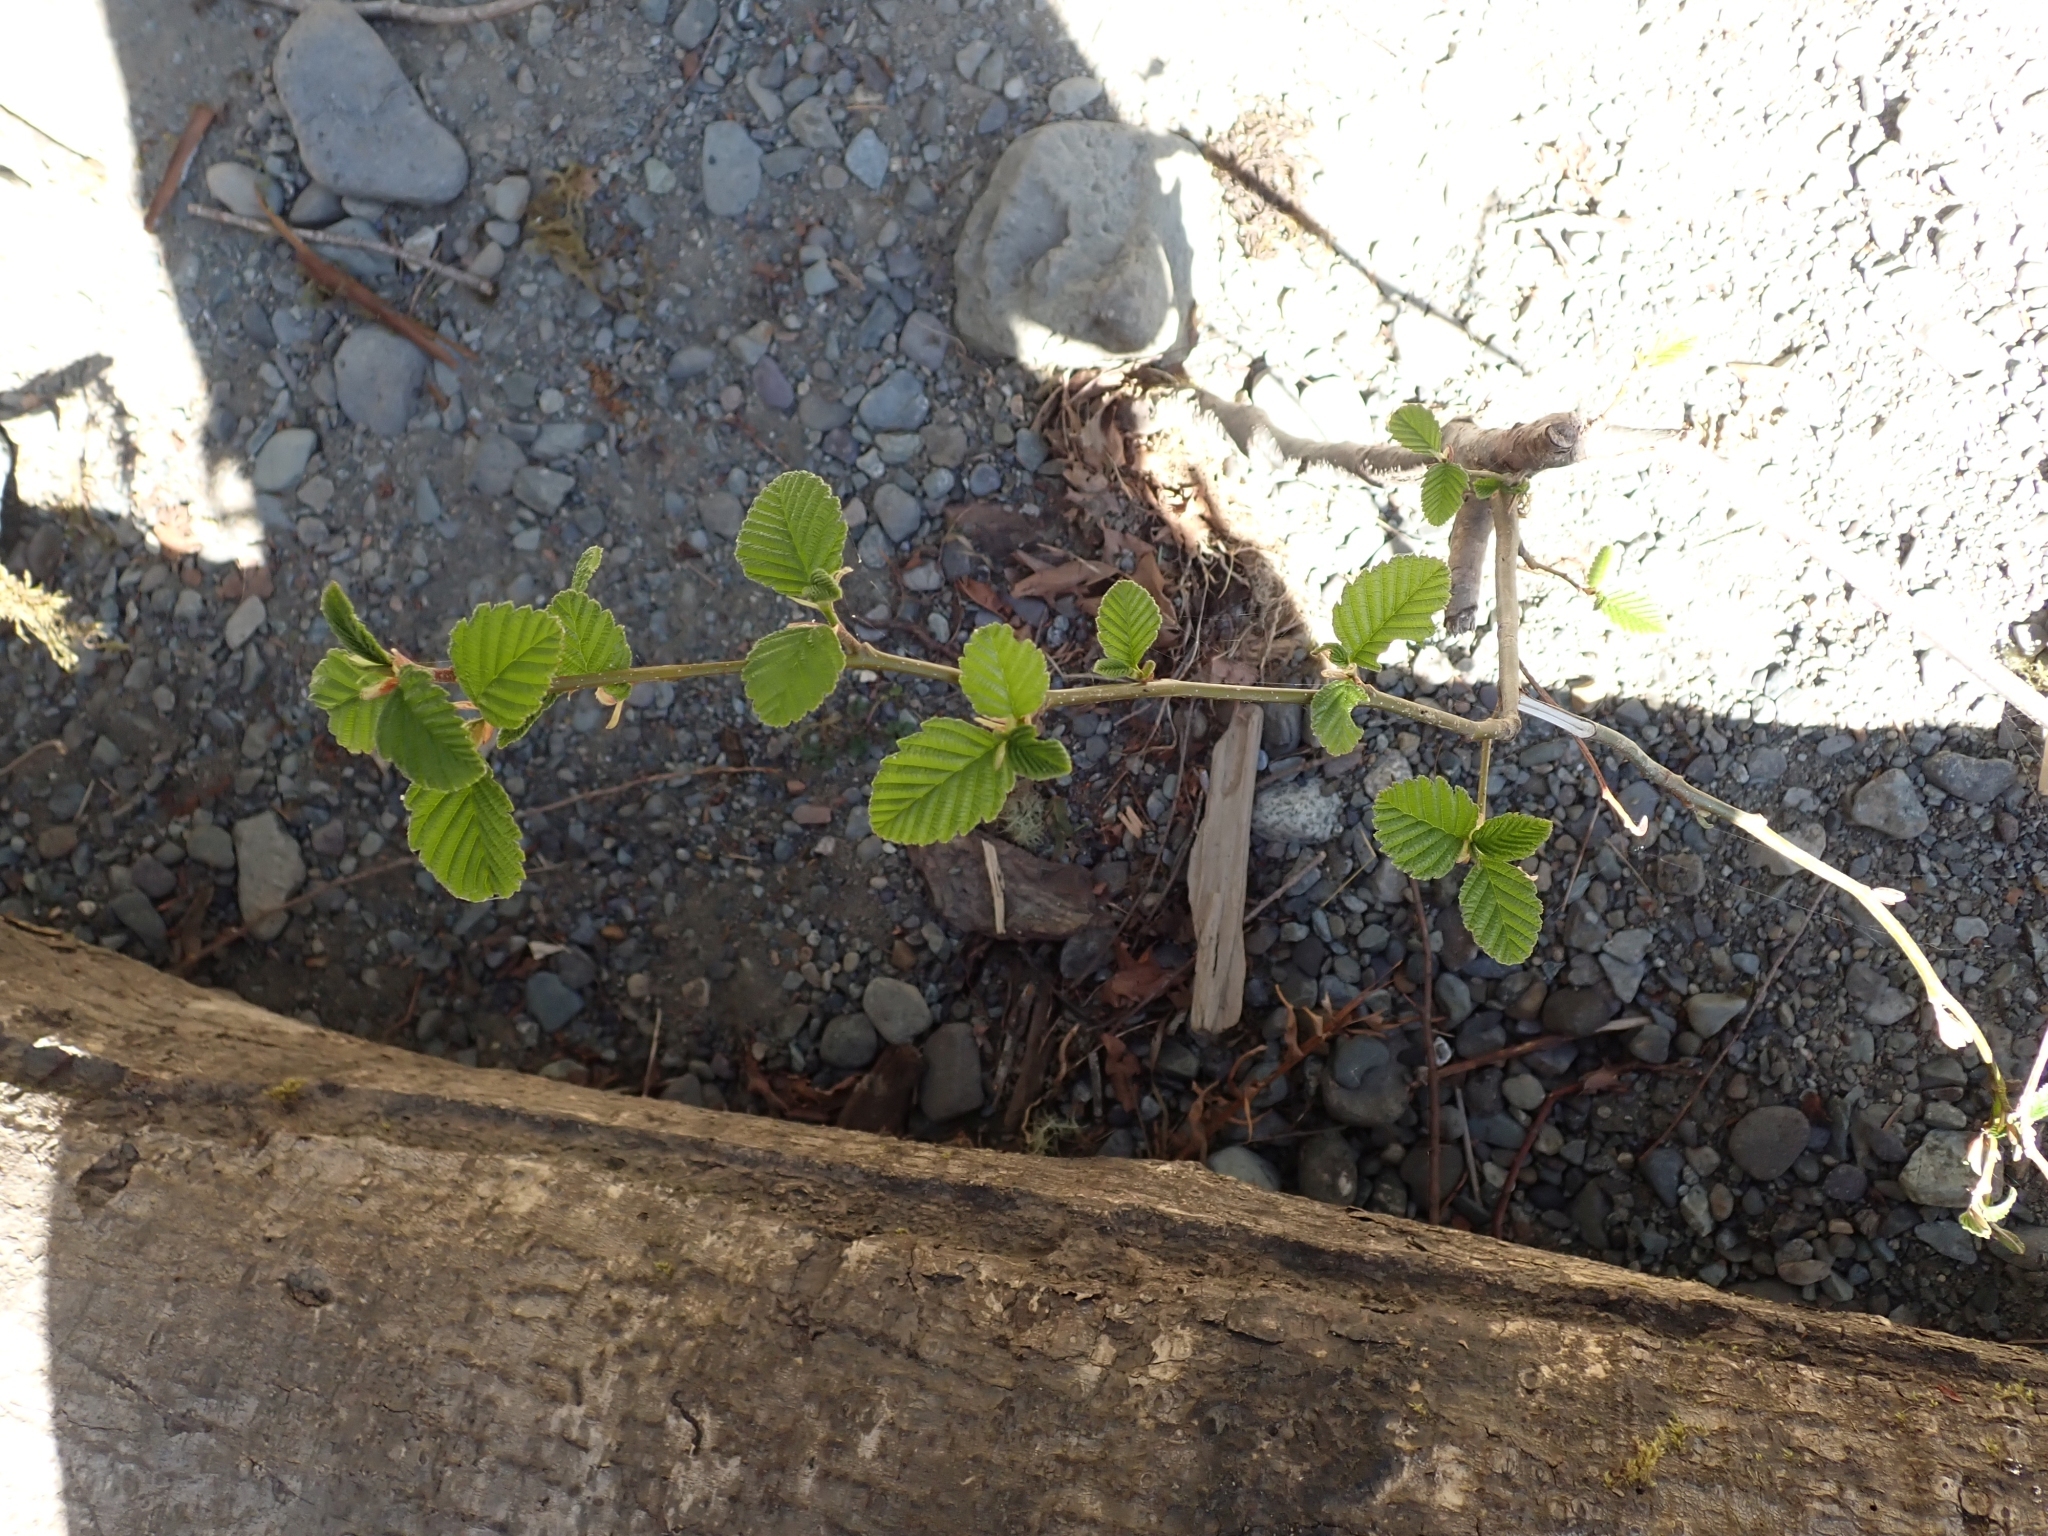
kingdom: Plantae
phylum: Tracheophyta
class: Magnoliopsida
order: Fagales
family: Betulaceae
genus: Alnus
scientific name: Alnus rubra
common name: Red alder
